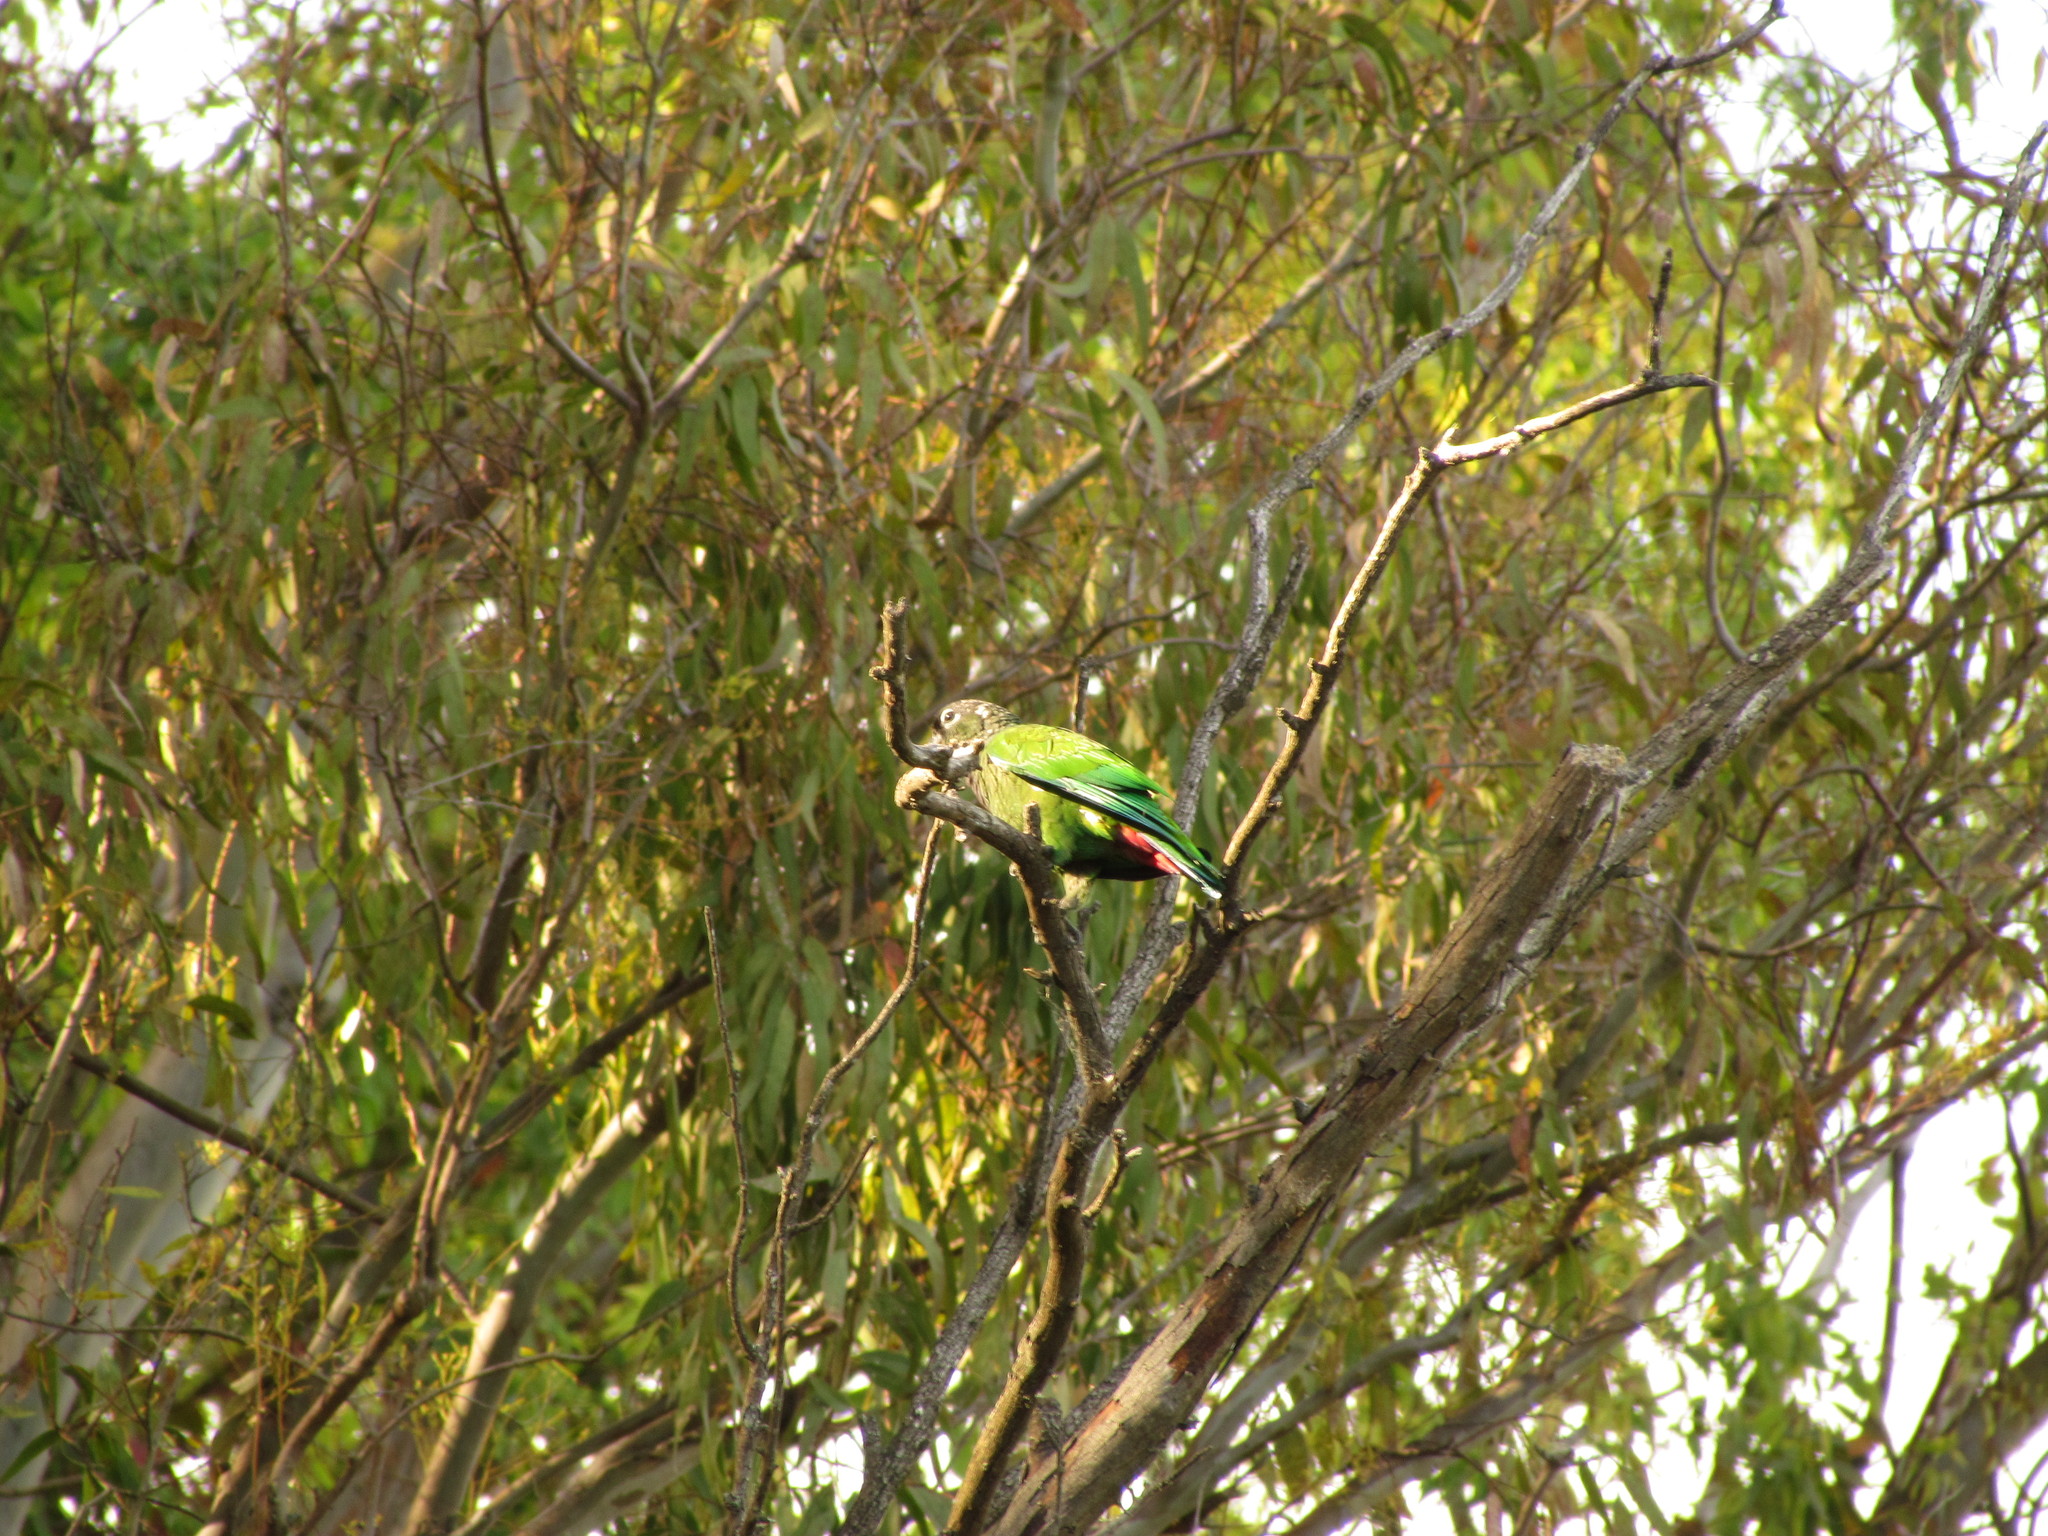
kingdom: Animalia
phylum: Chordata
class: Aves
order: Psittaciformes
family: Psittacidae
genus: Pionus
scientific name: Pionus maximiliani
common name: Scaly-headed parrot
